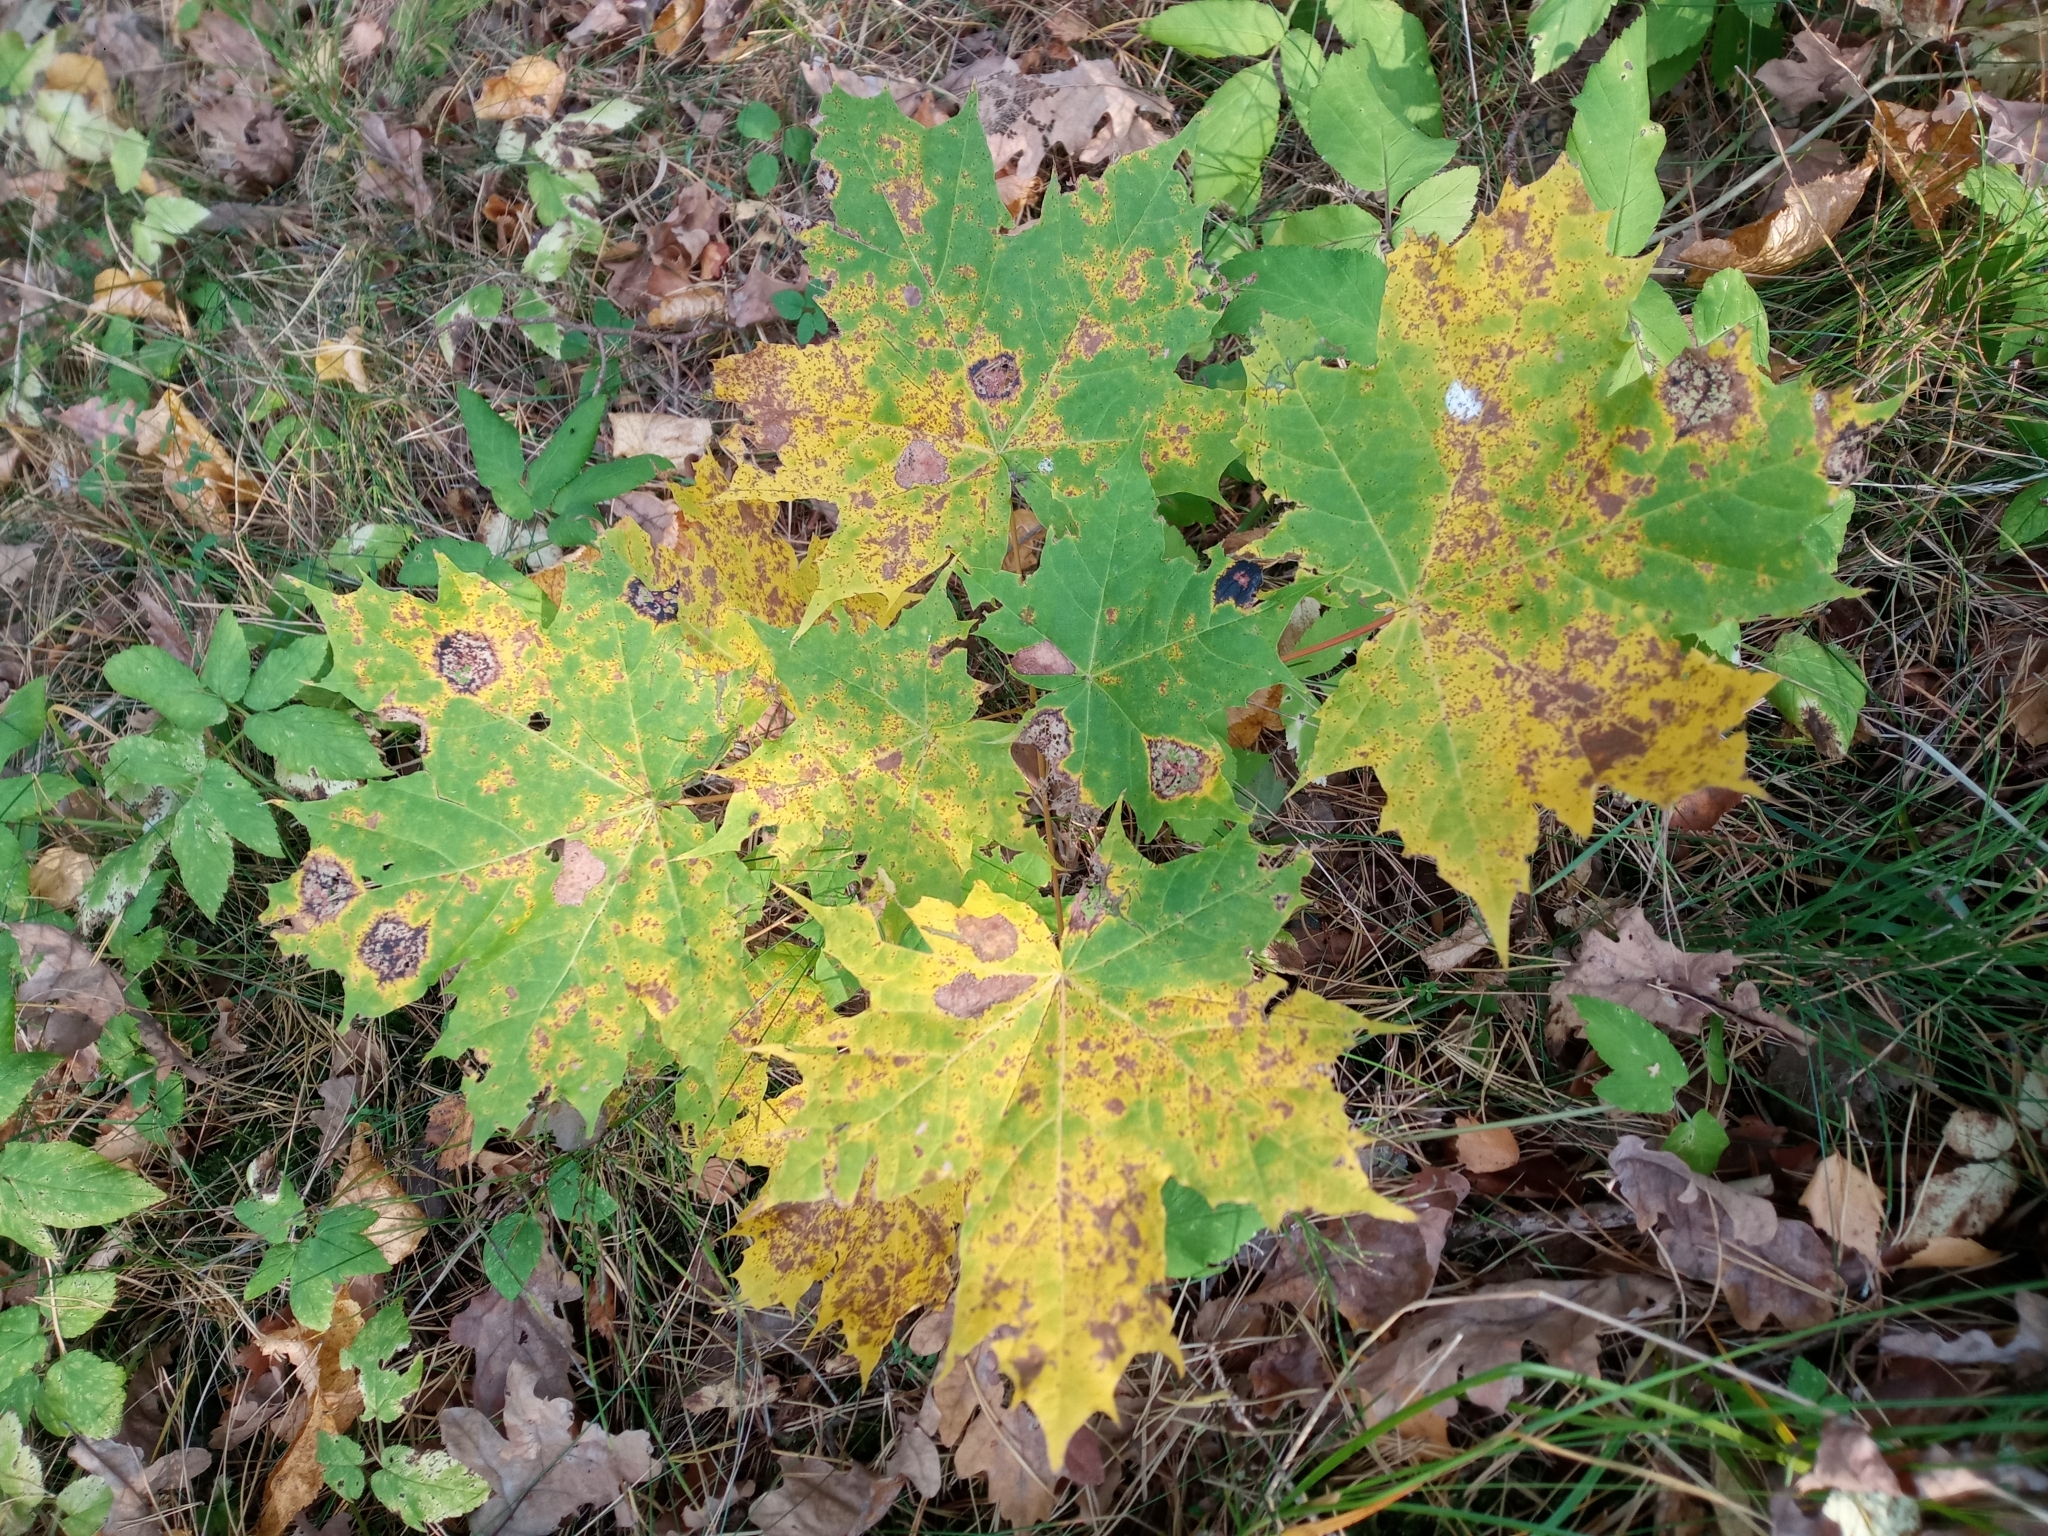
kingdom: Plantae
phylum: Tracheophyta
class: Magnoliopsida
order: Sapindales
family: Sapindaceae
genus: Acer
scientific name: Acer platanoides
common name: Norway maple
